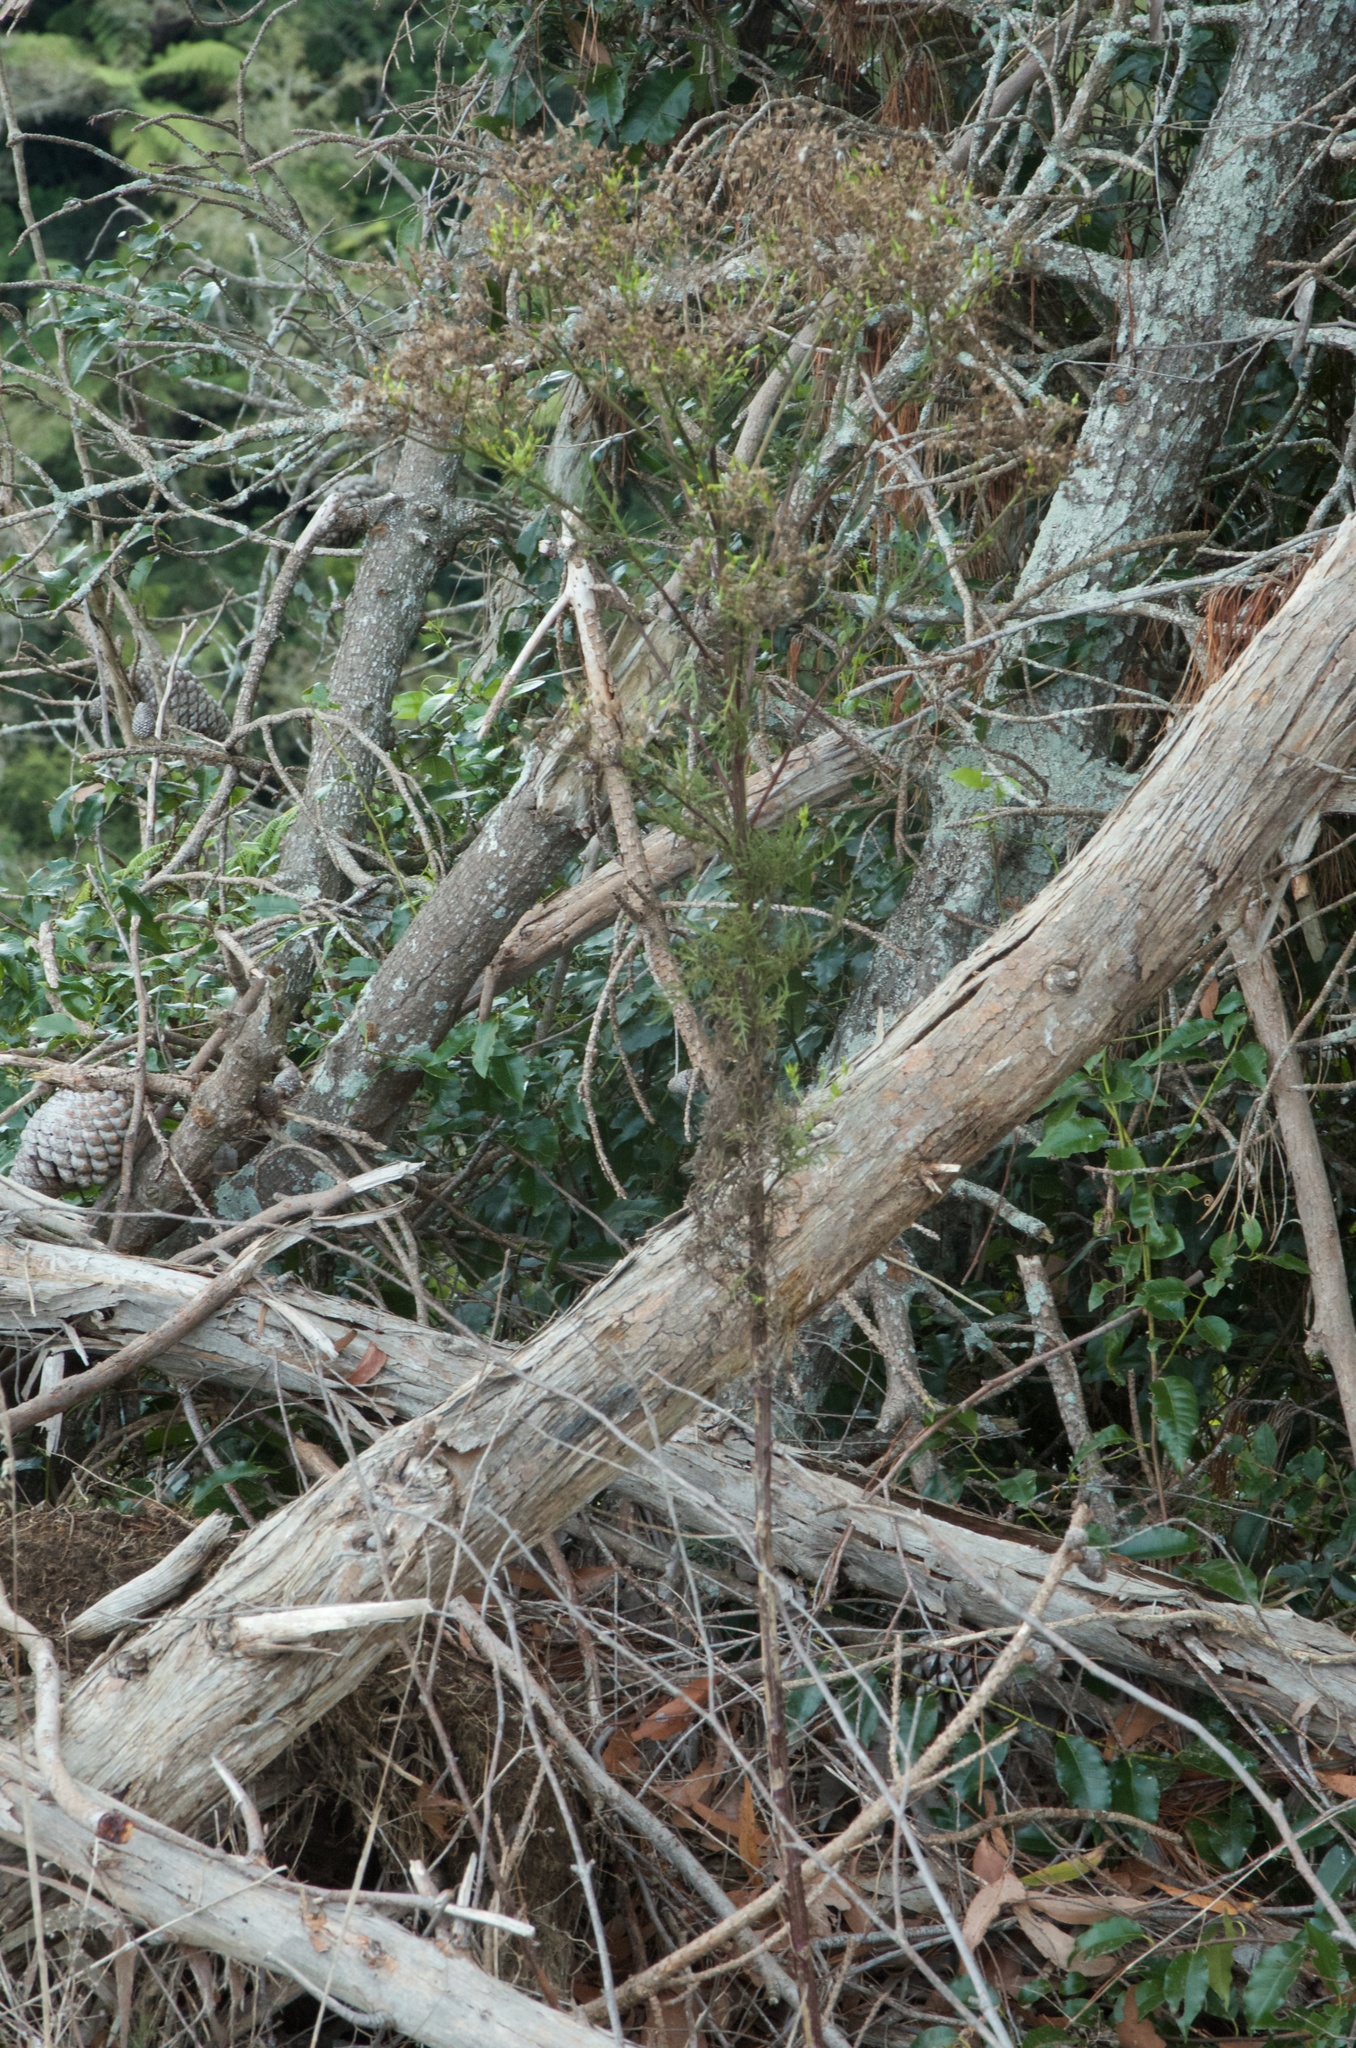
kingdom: Plantae
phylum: Tracheophyta
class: Magnoliopsida
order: Asterales
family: Asteraceae
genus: Senecio
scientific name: Senecio bipinnatisectus
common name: Australian fireweed
